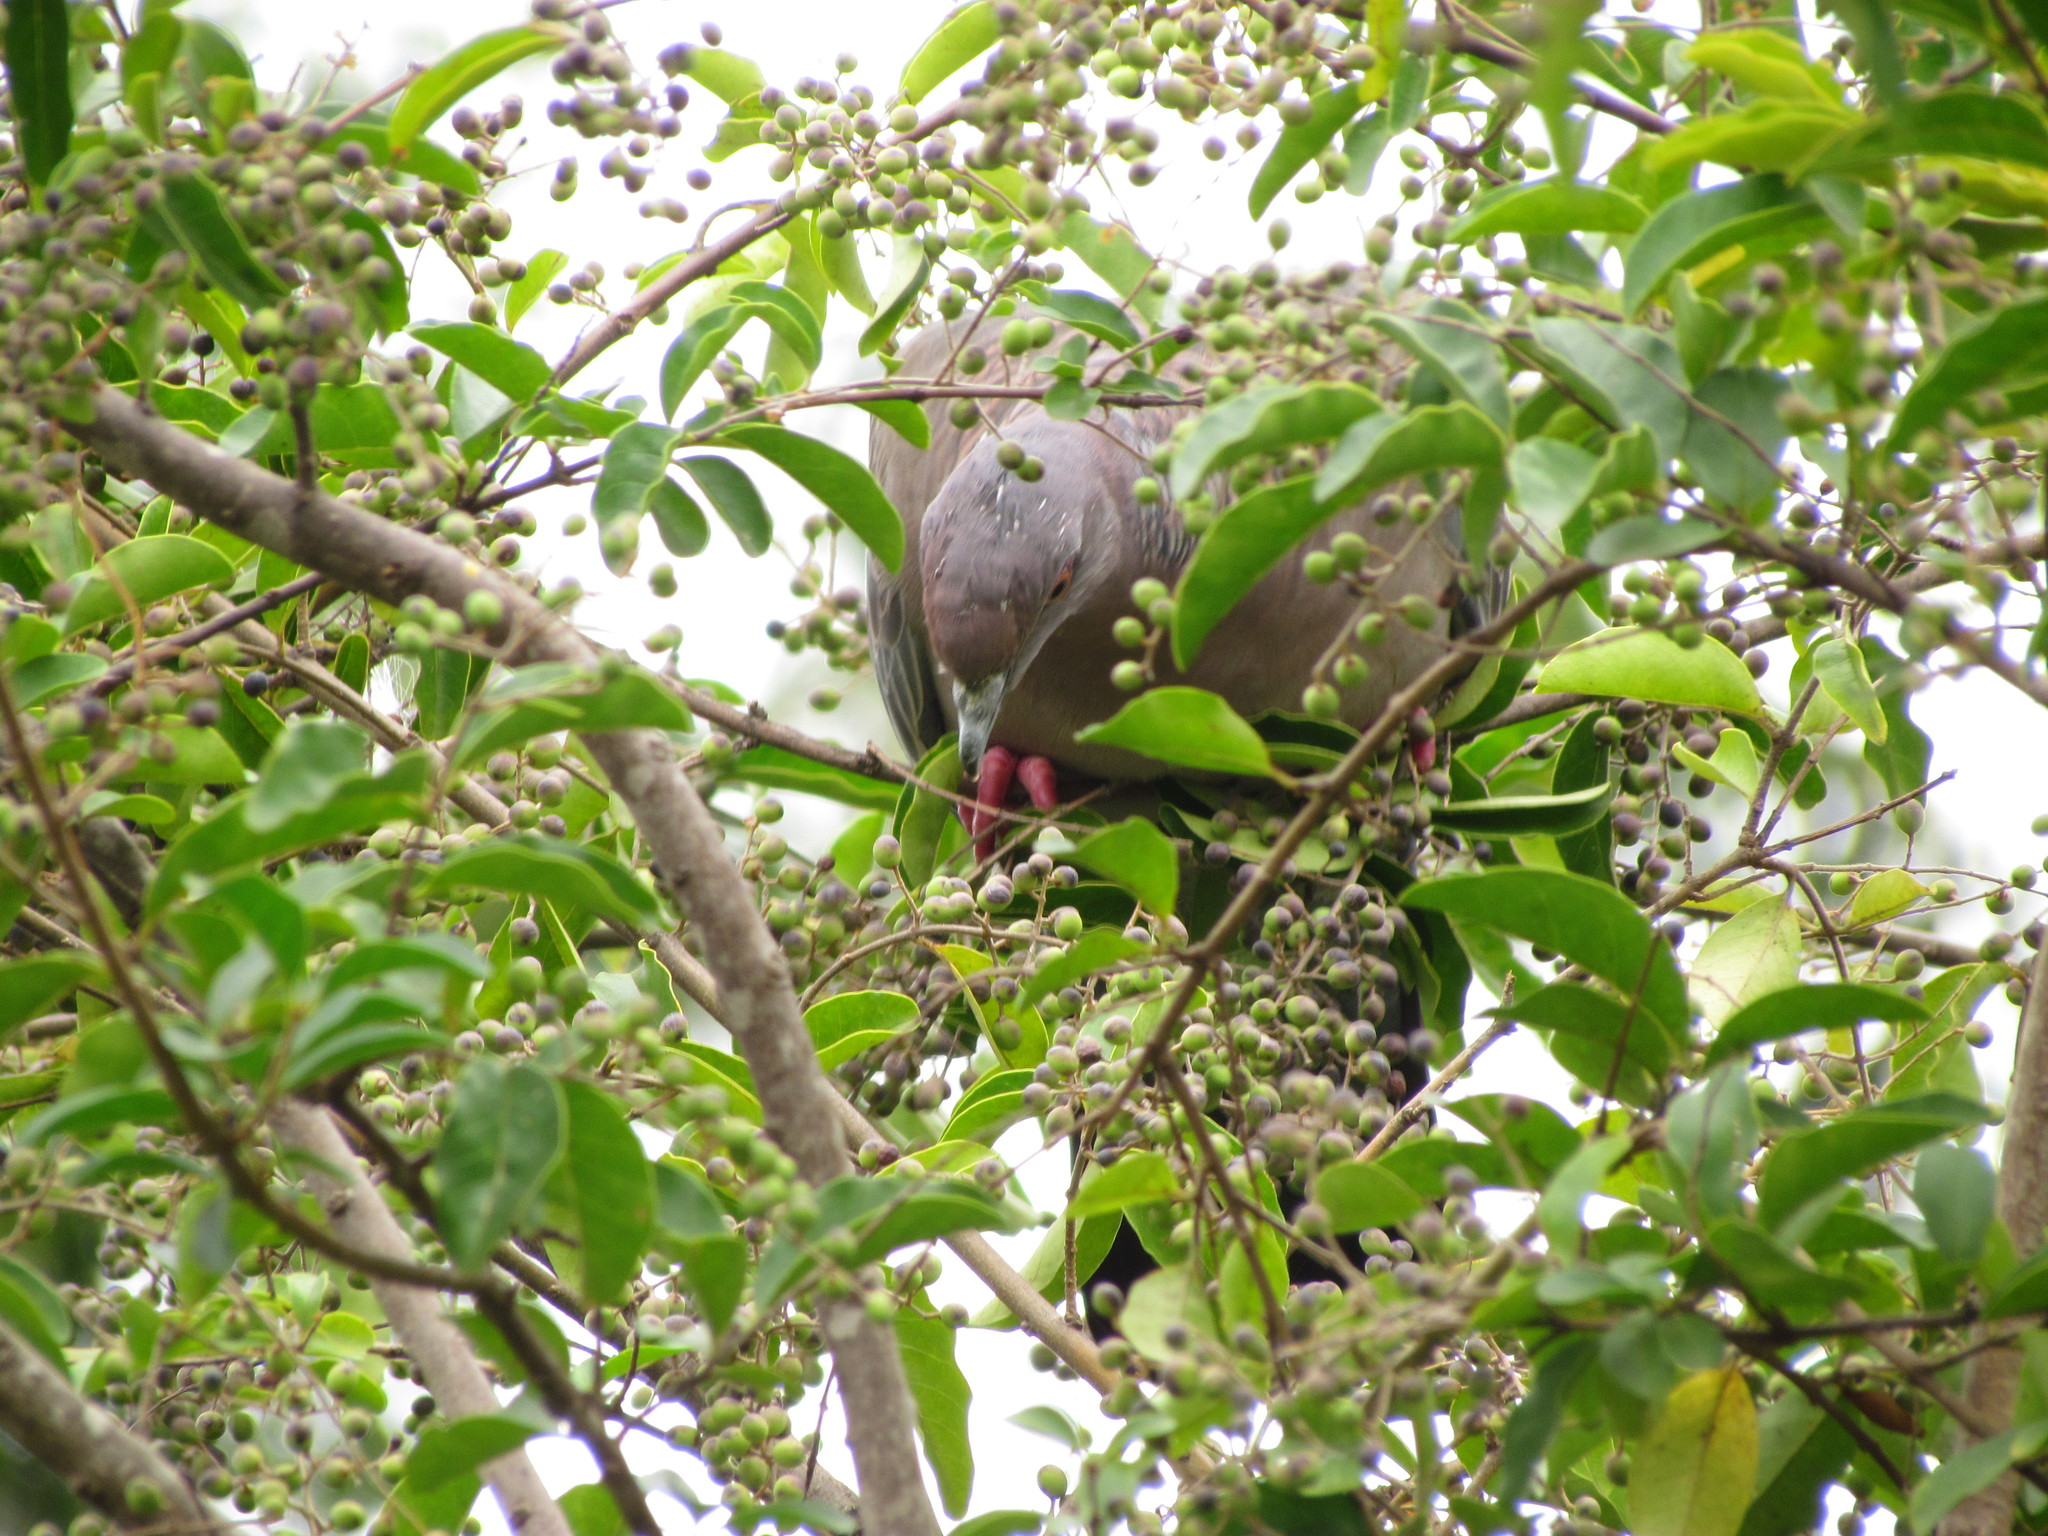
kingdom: Animalia
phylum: Chordata
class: Aves
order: Columbiformes
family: Columbidae
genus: Patagioenas
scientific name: Patagioenas picazuro
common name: Picazuro pigeon
